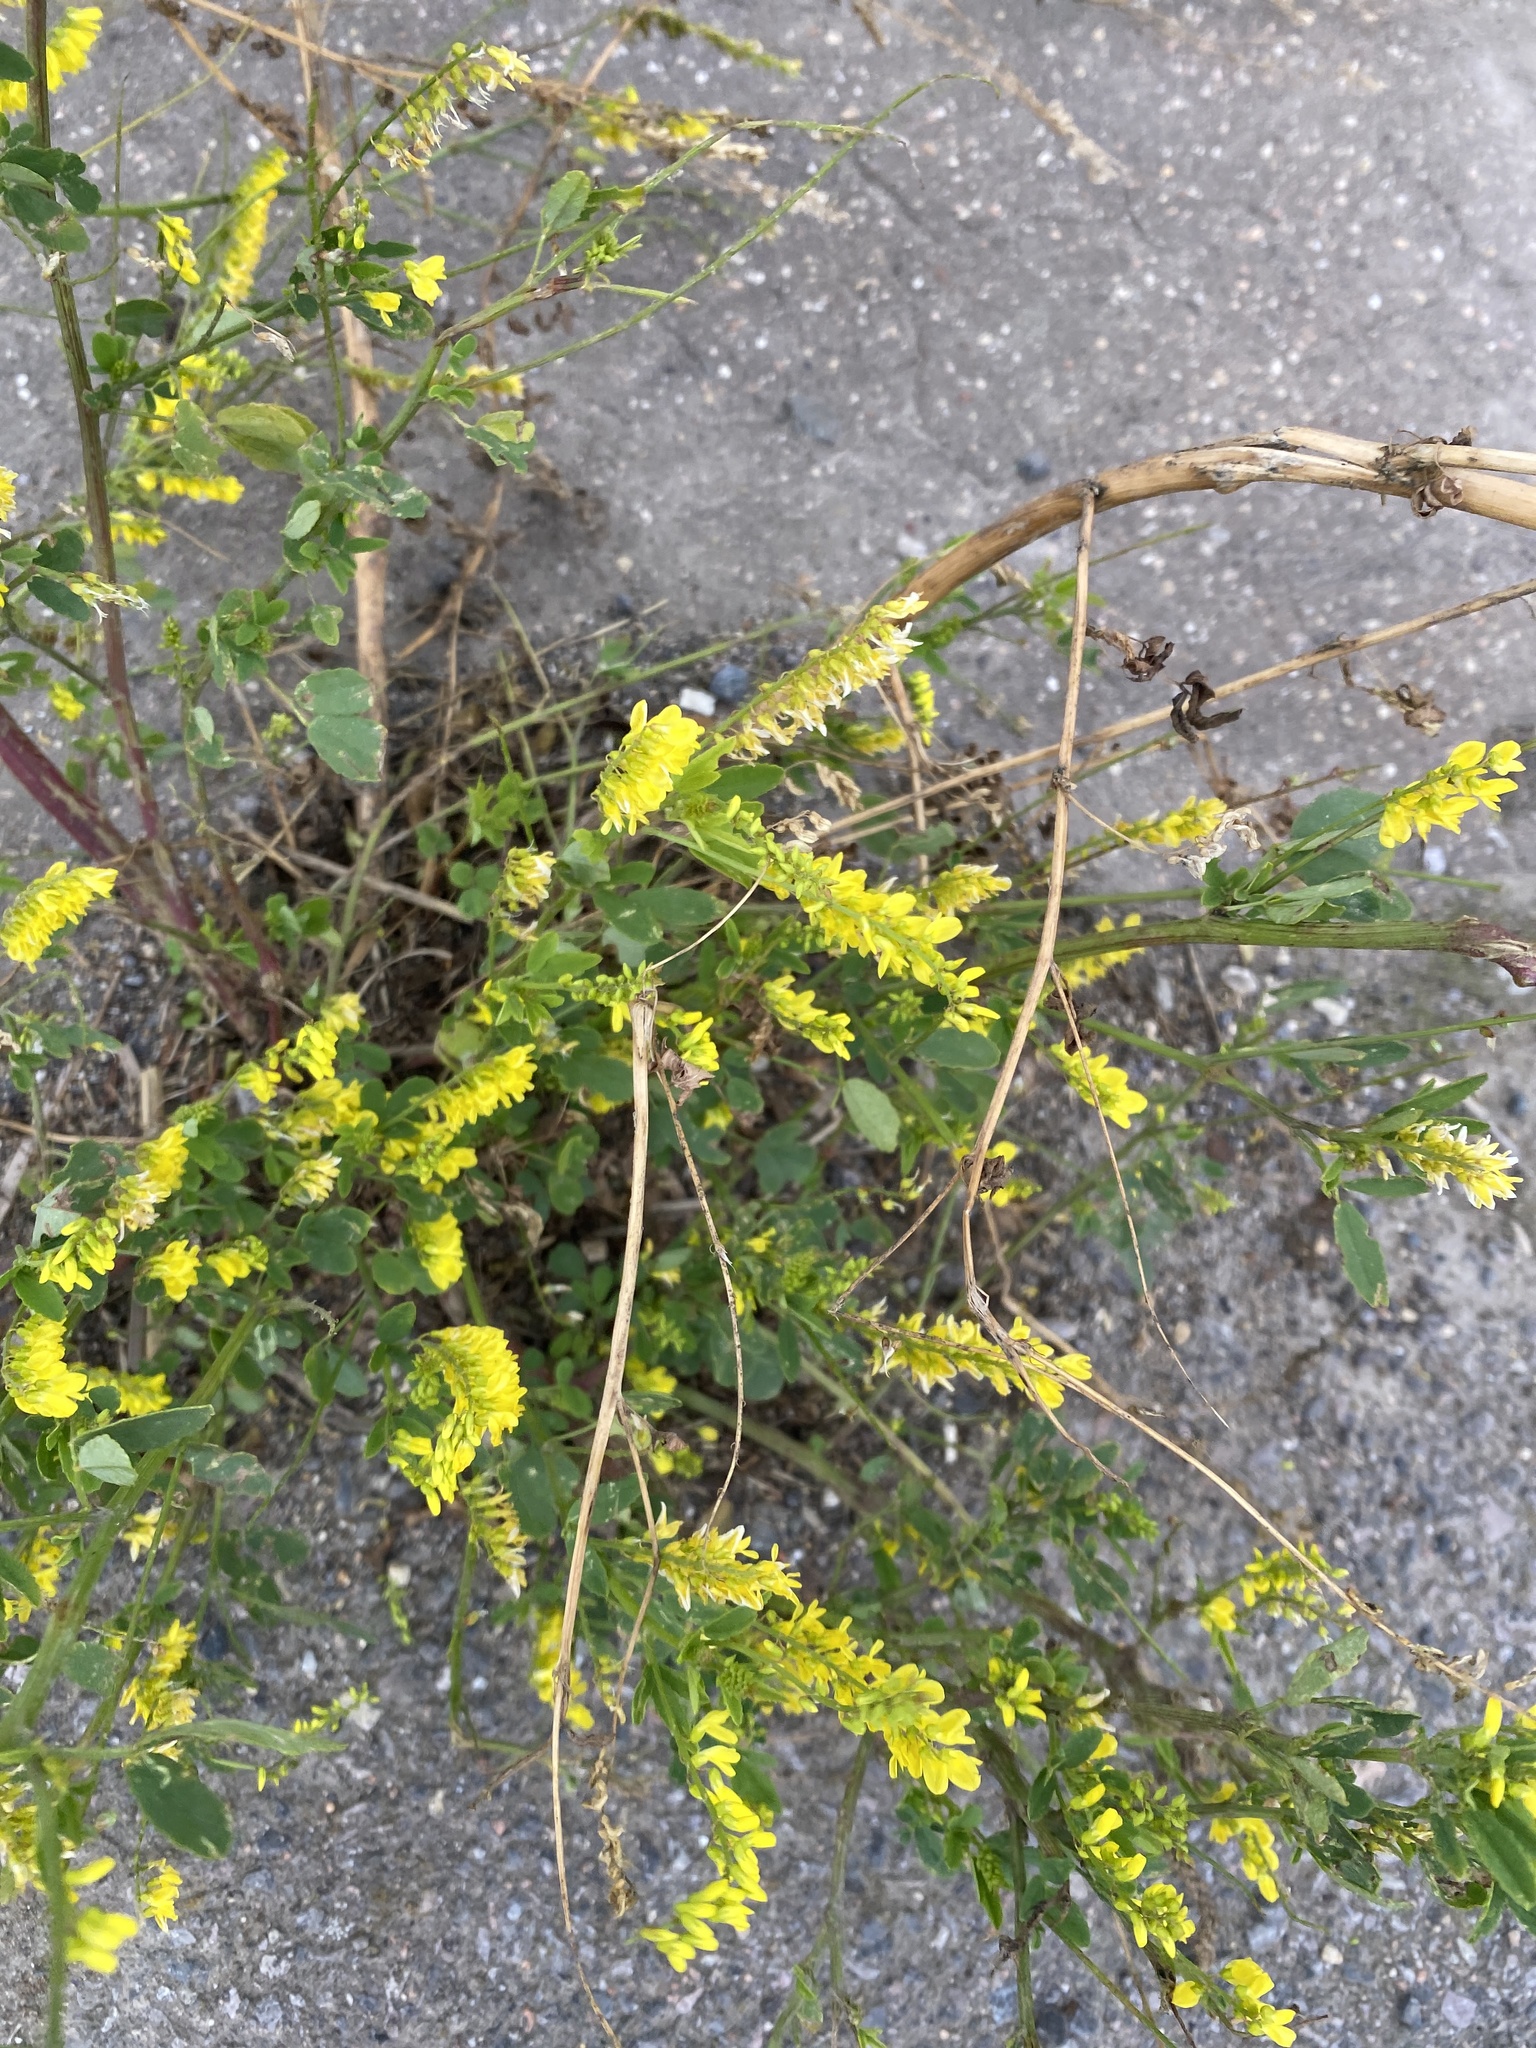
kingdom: Plantae
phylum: Tracheophyta
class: Magnoliopsida
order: Fabales
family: Fabaceae
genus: Melilotus
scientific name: Melilotus officinalis
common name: Sweetclover
